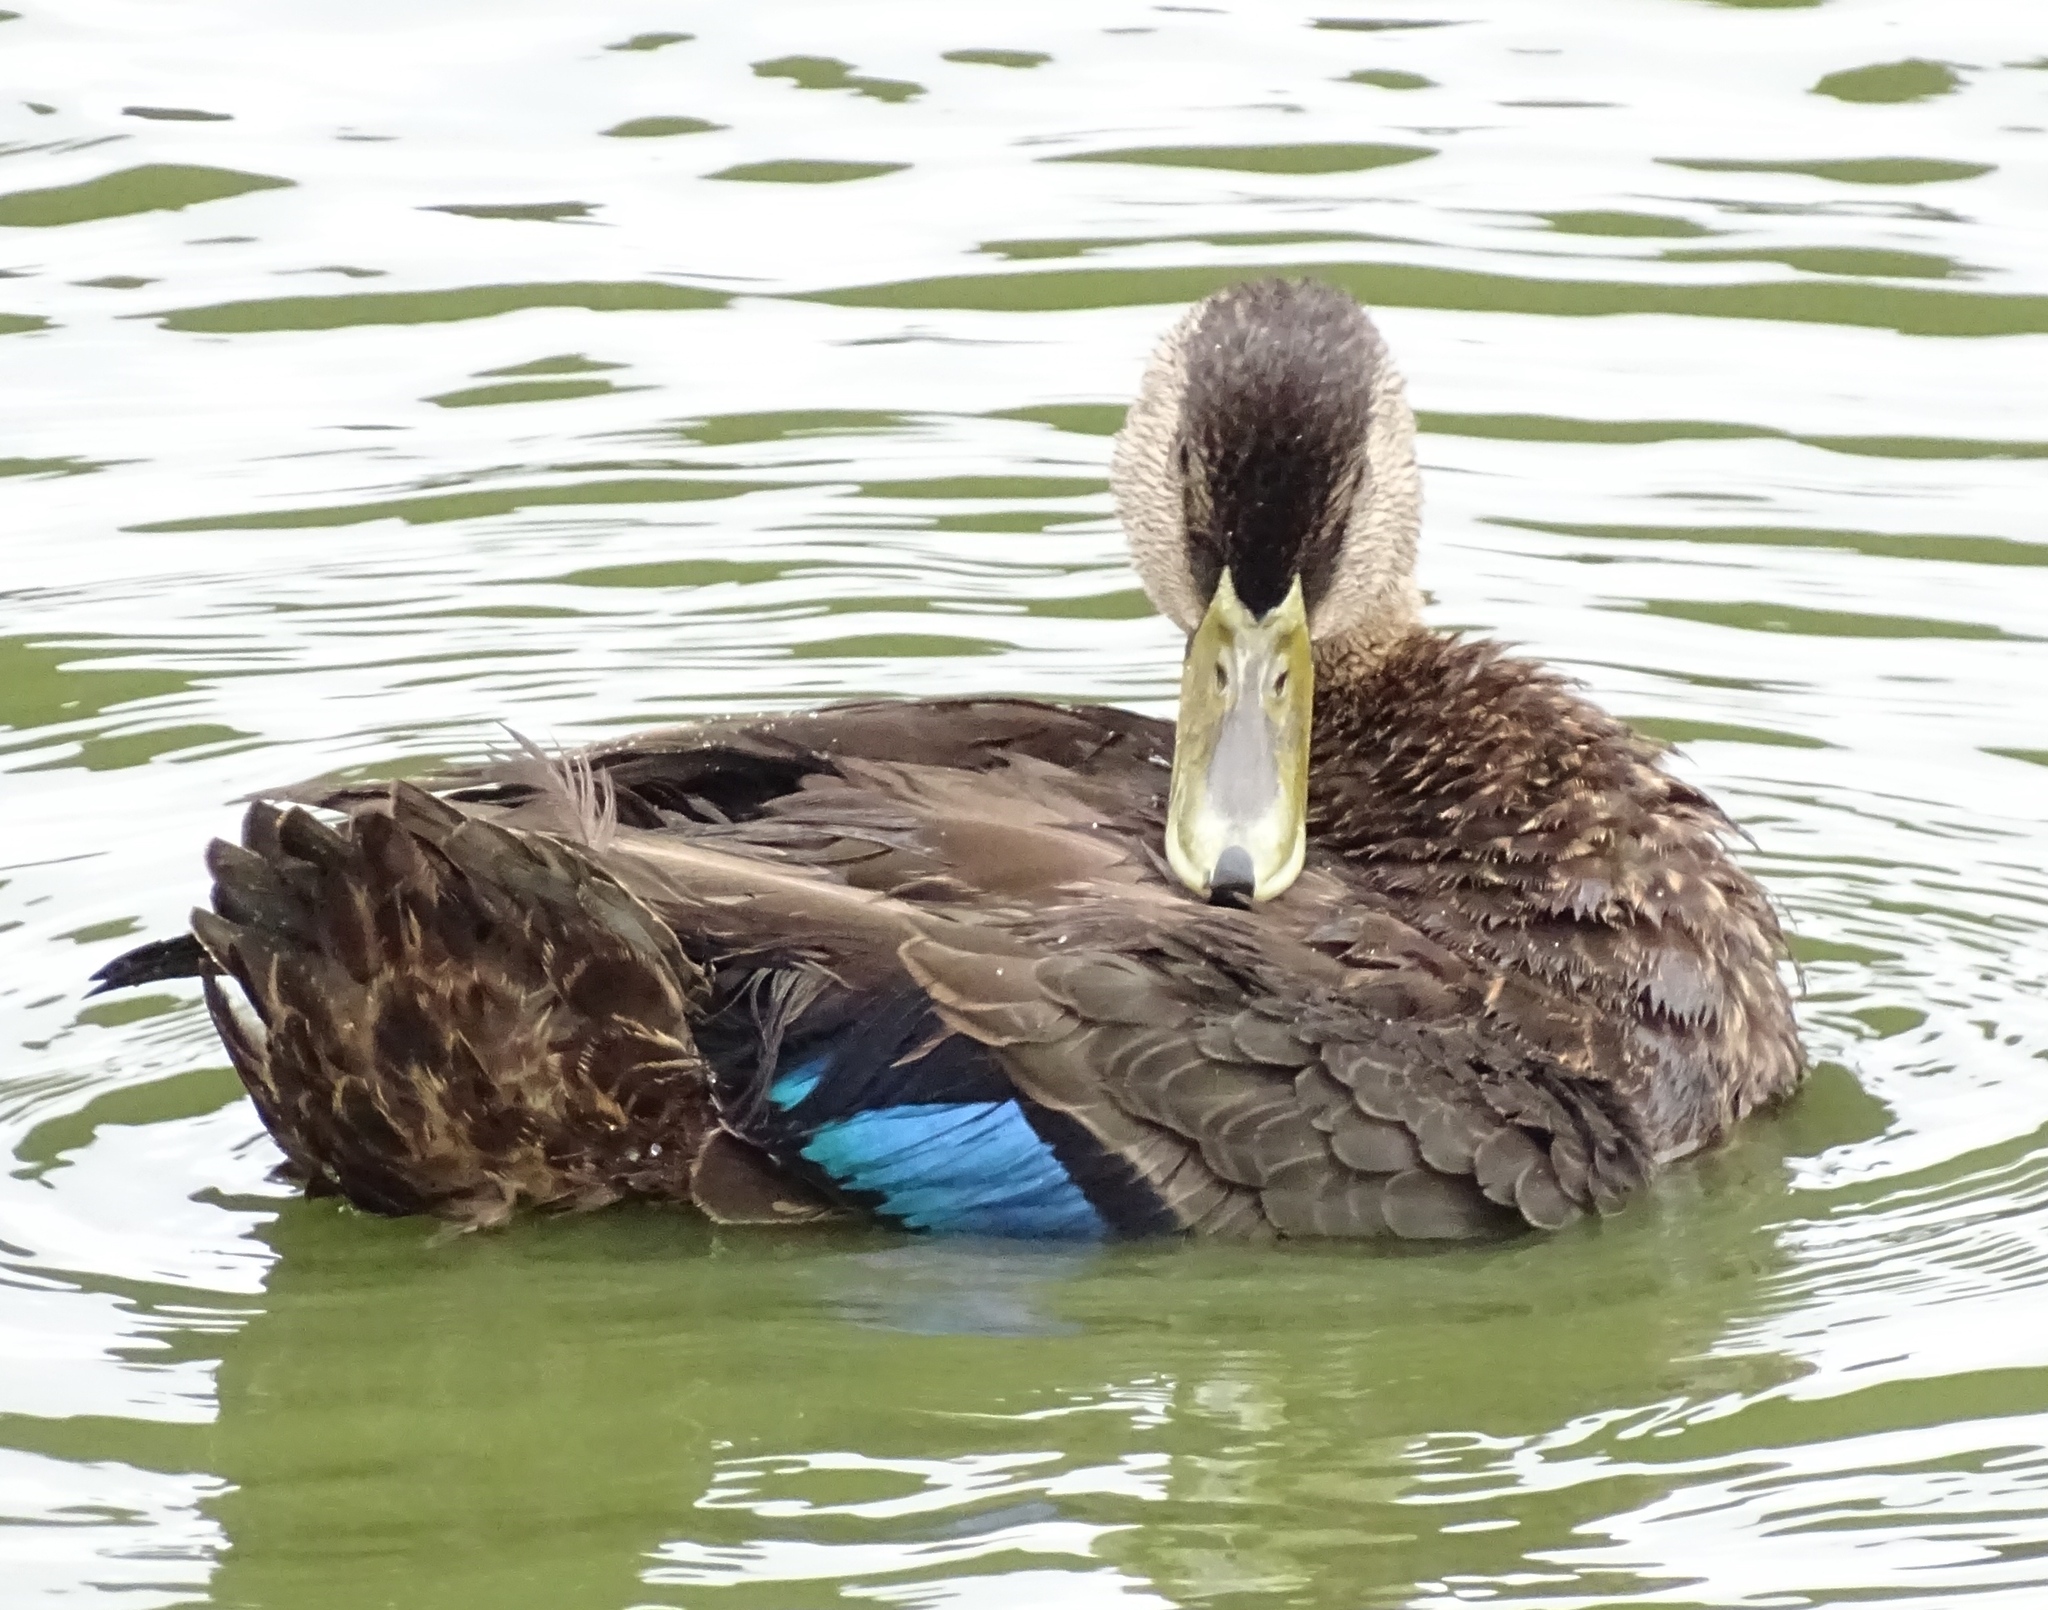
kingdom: Animalia
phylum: Chordata
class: Aves
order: Anseriformes
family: Anatidae
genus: Anas
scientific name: Anas rubripes
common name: American black duck
